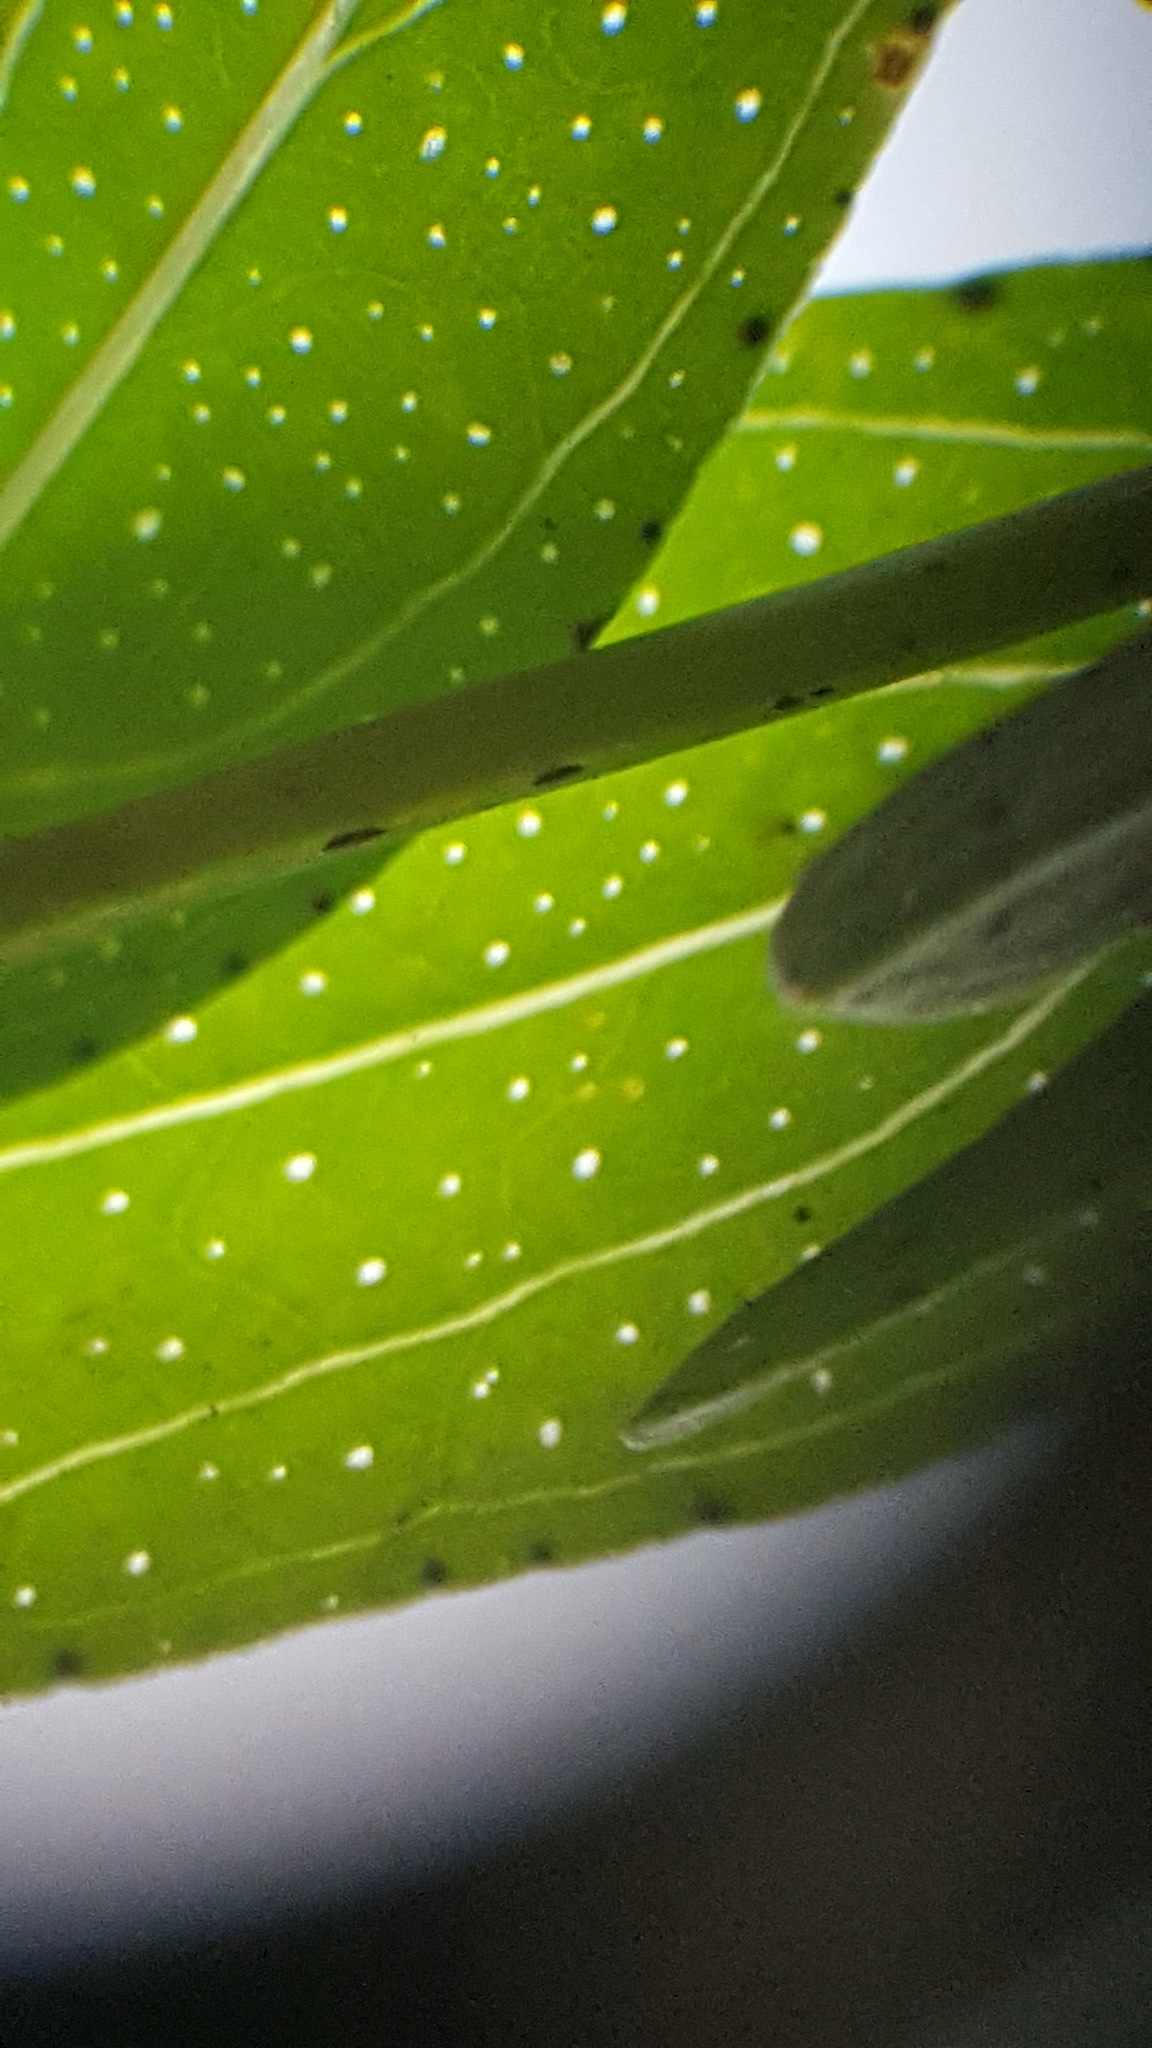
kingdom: Plantae
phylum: Tracheophyta
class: Magnoliopsida
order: Malpighiales
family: Hypericaceae
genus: Hypericum
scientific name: Hypericum perforatum
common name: Common st. johnswort
